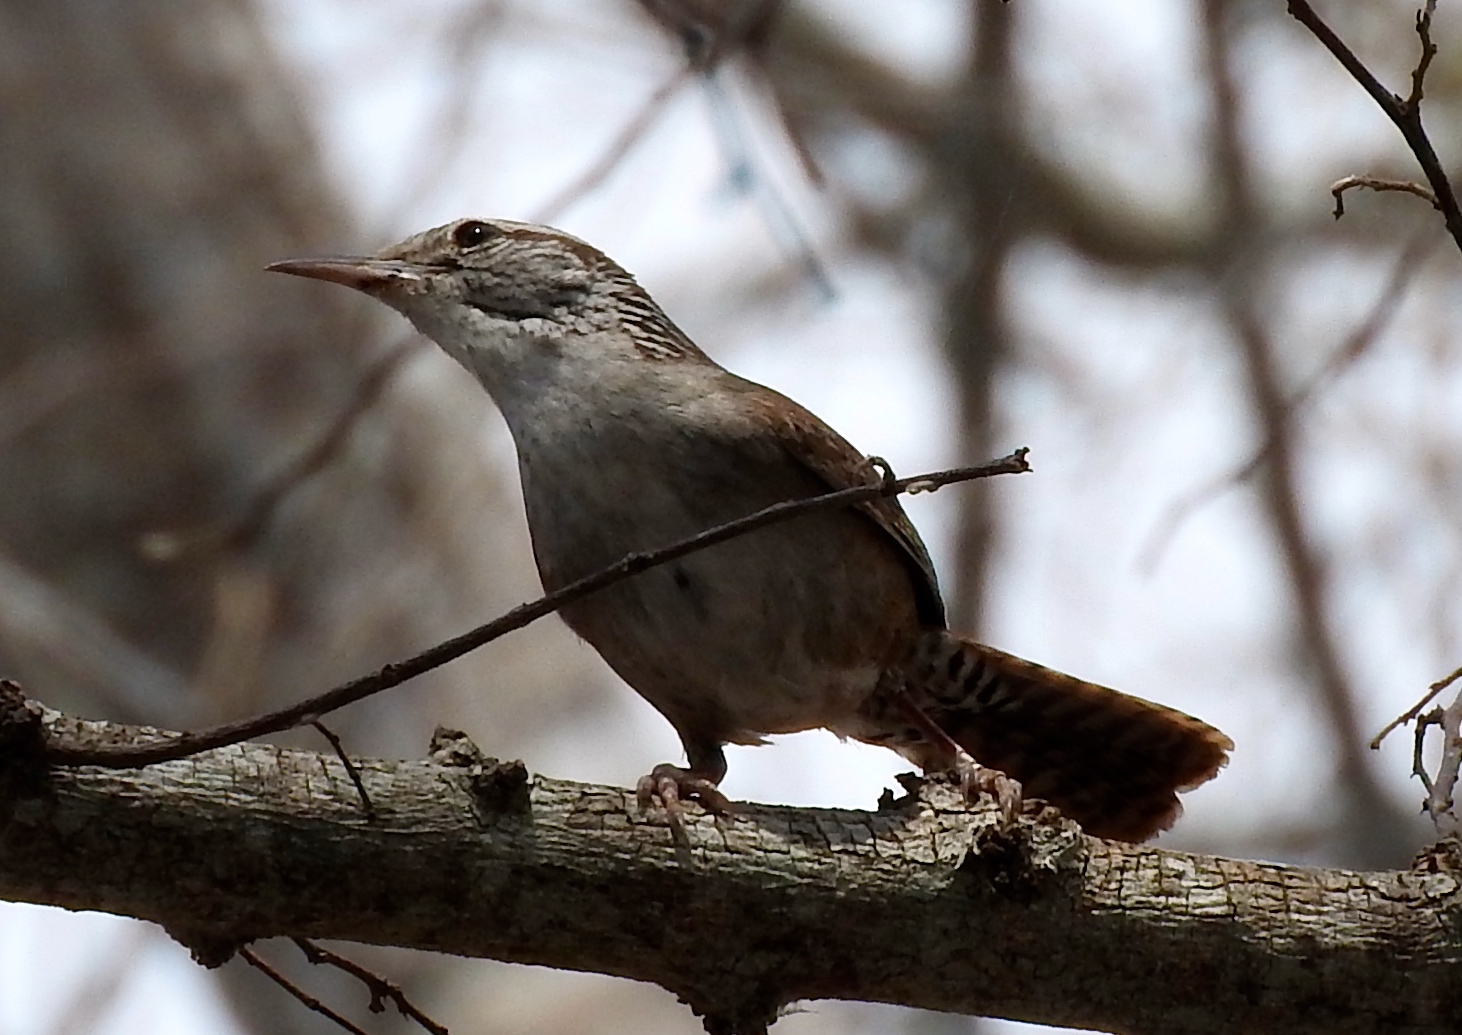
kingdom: Animalia
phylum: Chordata
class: Aves
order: Passeriformes
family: Troglodytidae
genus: Thryophilus
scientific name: Thryophilus sinaloa
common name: Sinaloa wren
